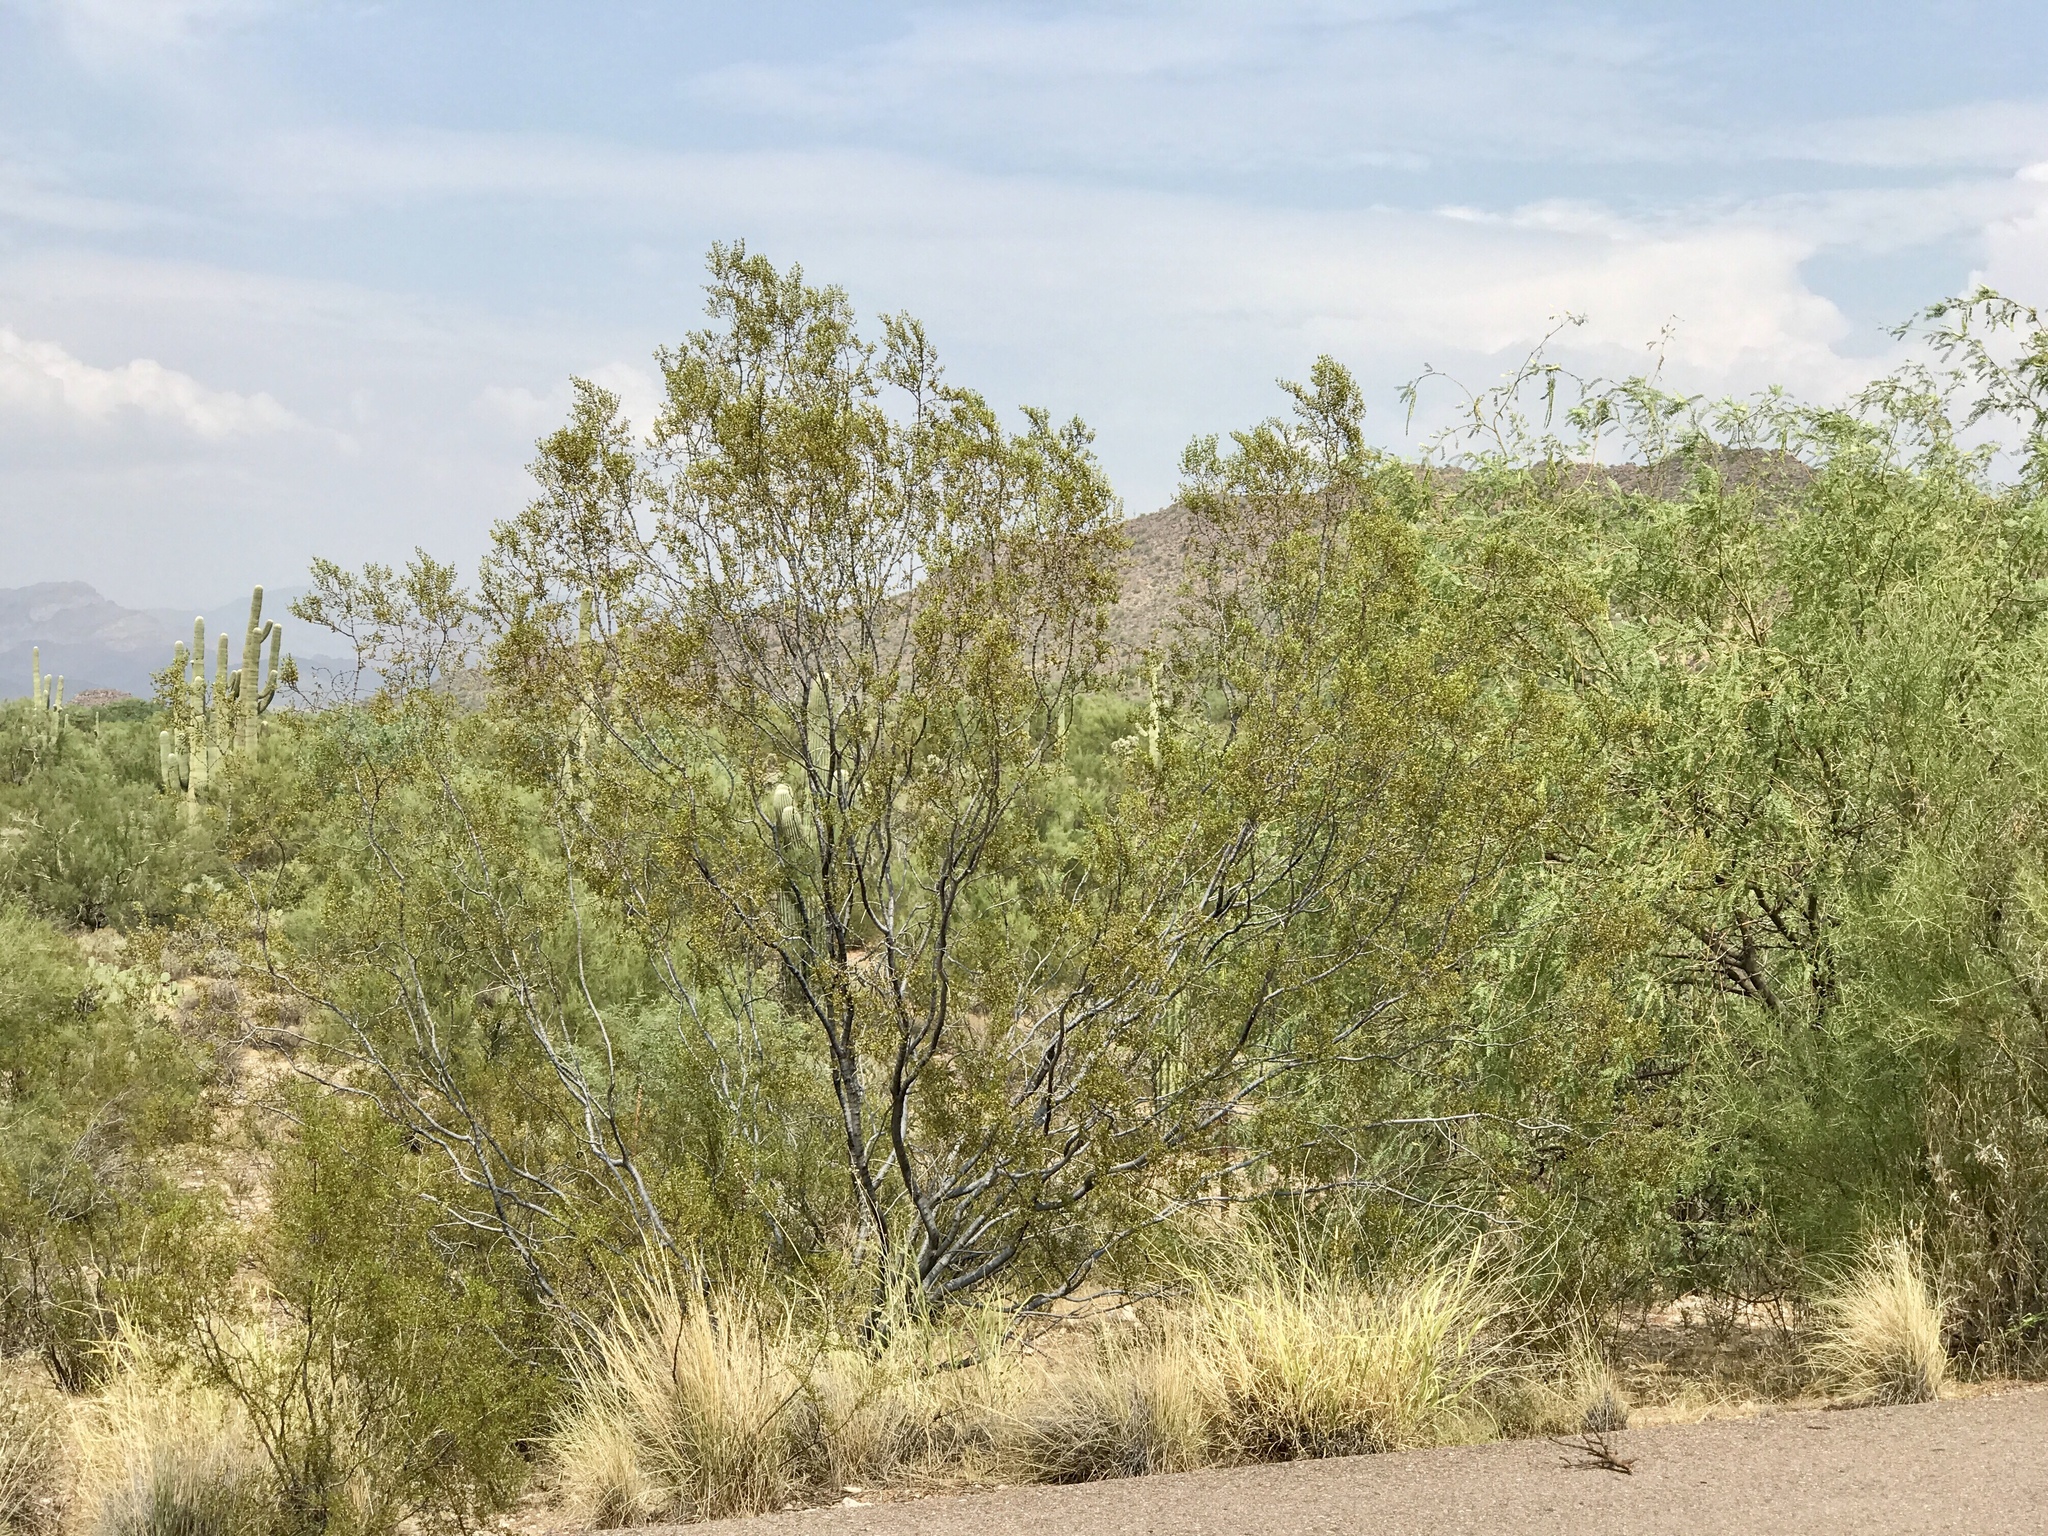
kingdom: Plantae
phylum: Tracheophyta
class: Magnoliopsida
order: Zygophyllales
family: Zygophyllaceae
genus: Larrea
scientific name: Larrea tridentata
